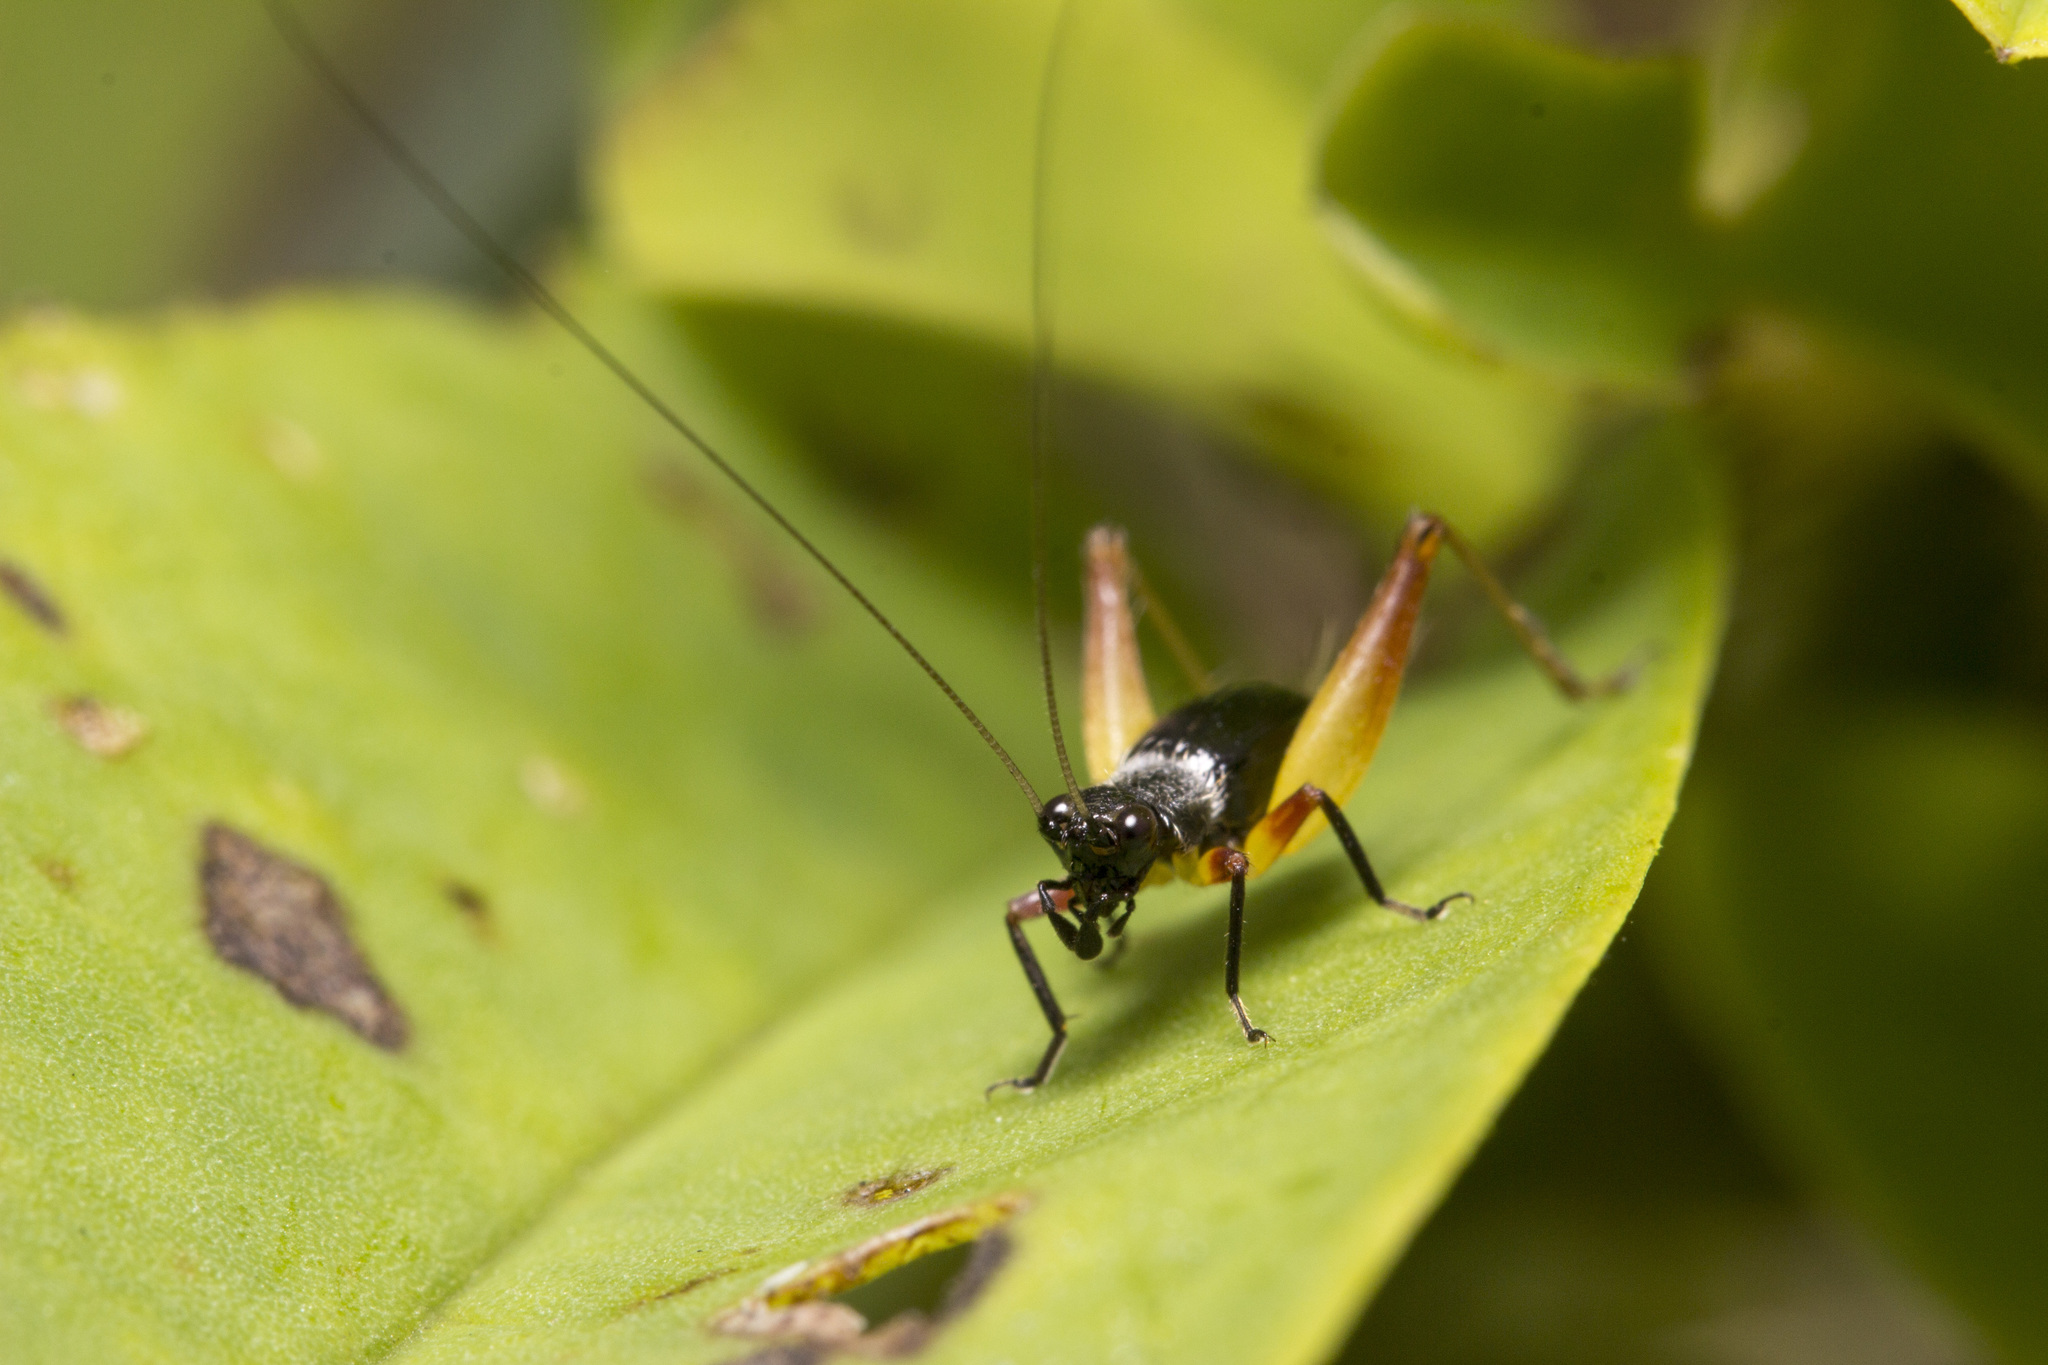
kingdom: Animalia
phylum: Arthropoda
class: Insecta
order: Orthoptera
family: Trigonidiidae
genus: Trigonidium
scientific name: Trigonidium cicindeloides
